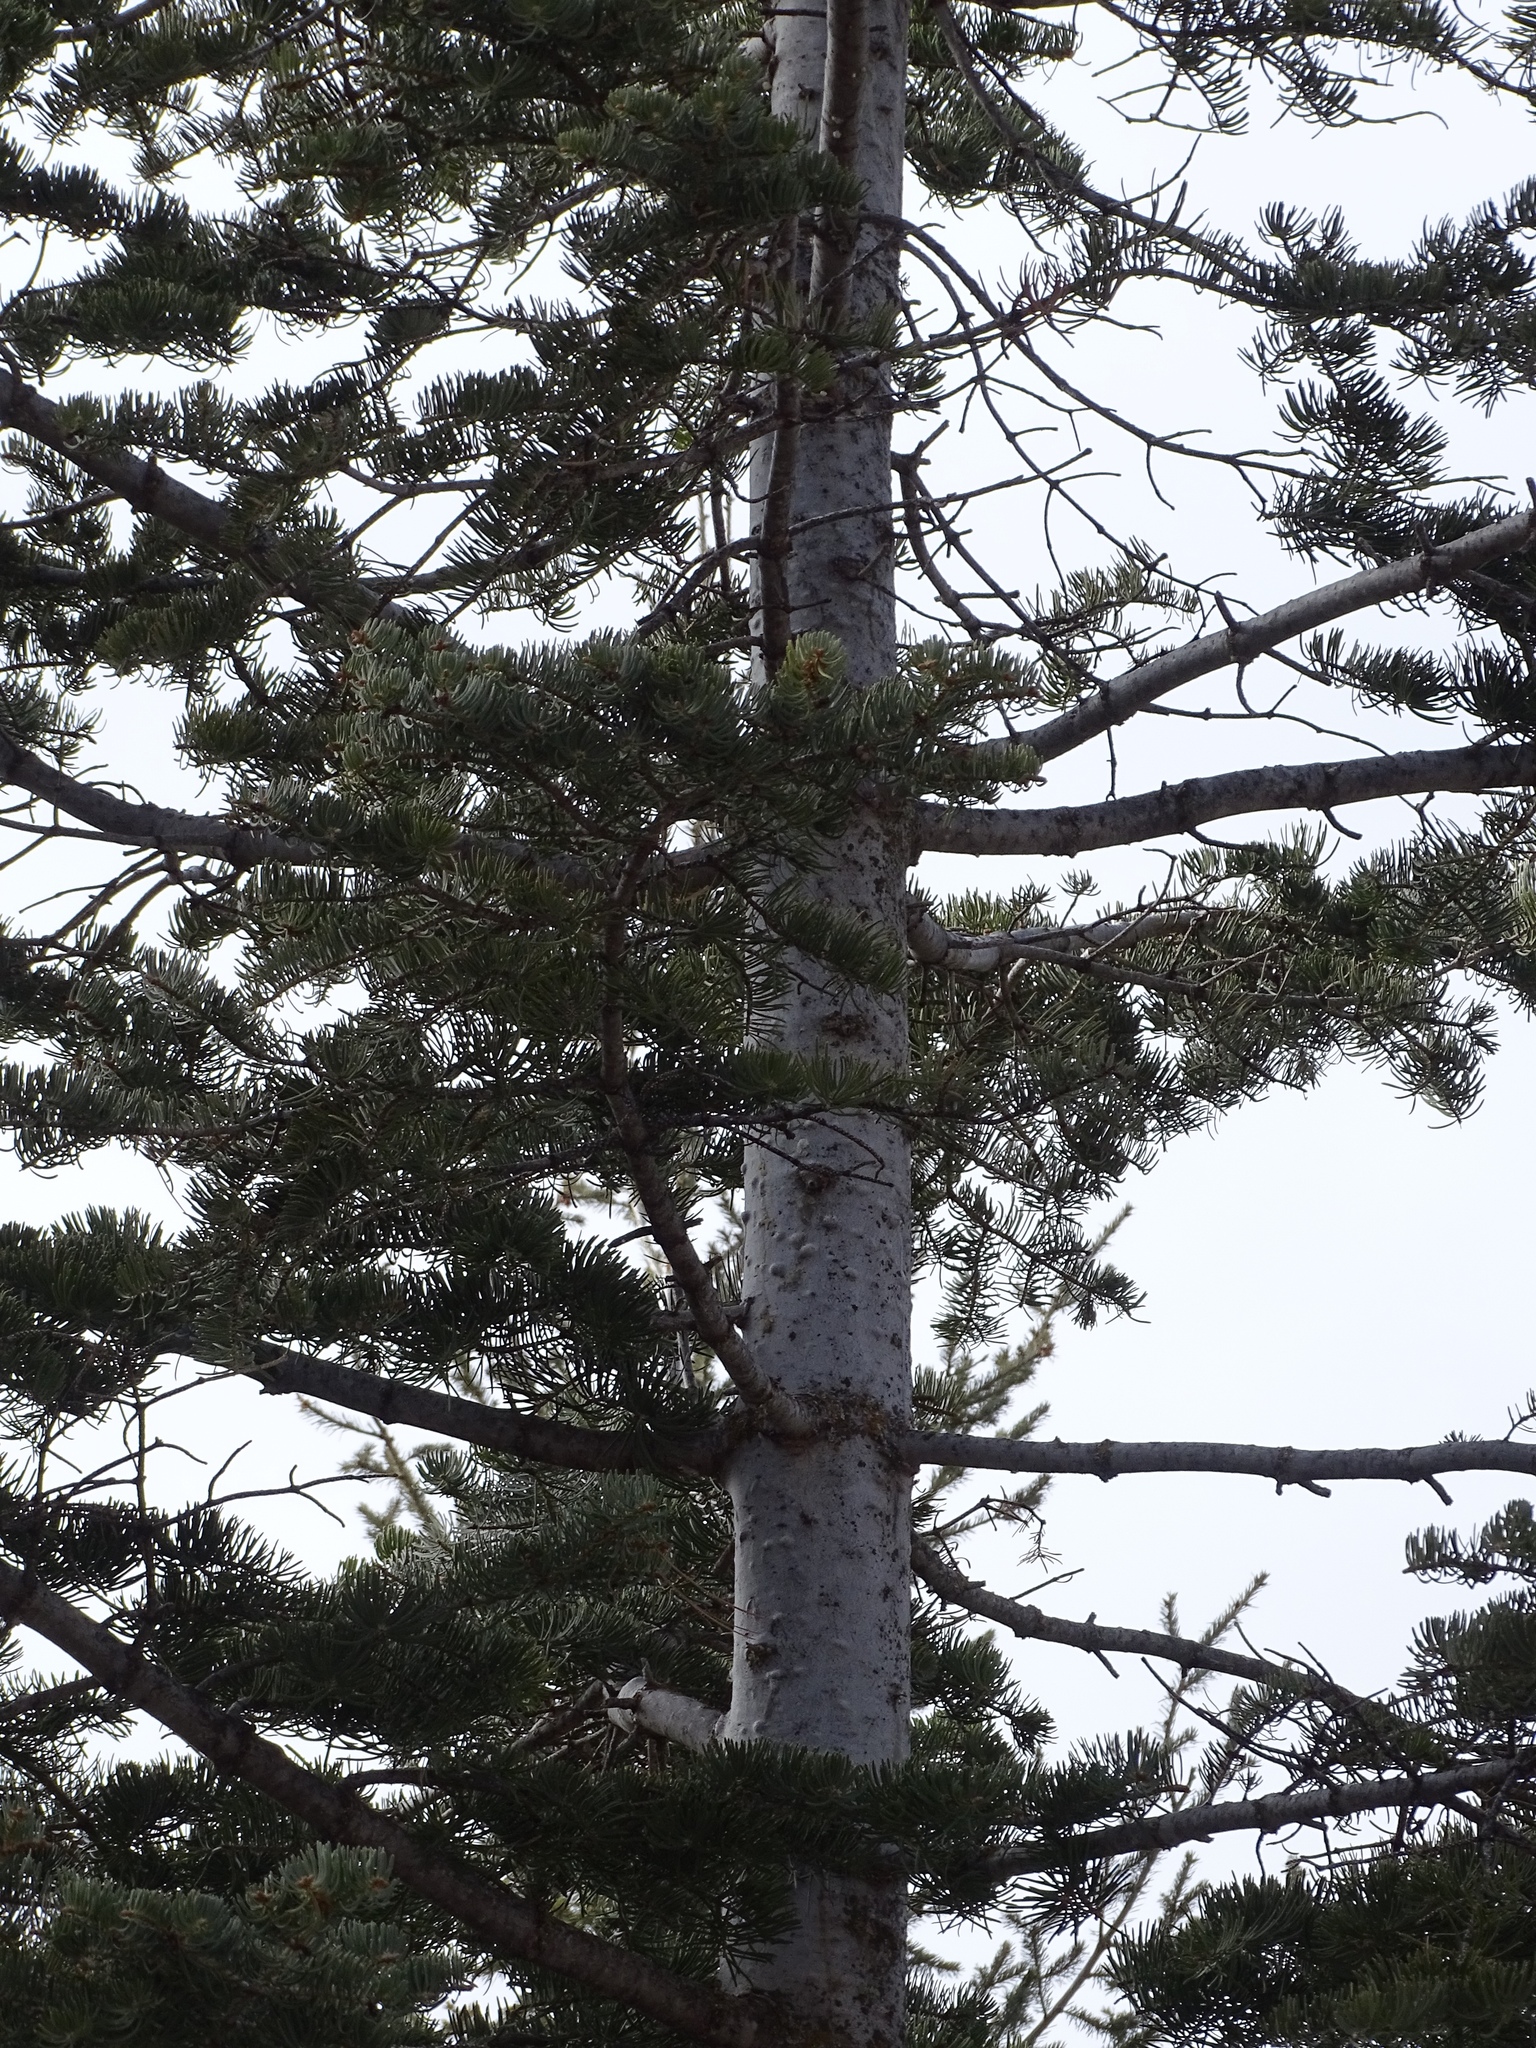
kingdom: Plantae
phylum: Tracheophyta
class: Pinopsida
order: Pinales
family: Pinaceae
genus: Picea
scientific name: Picea engelmannii
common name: Engelmann spruce
